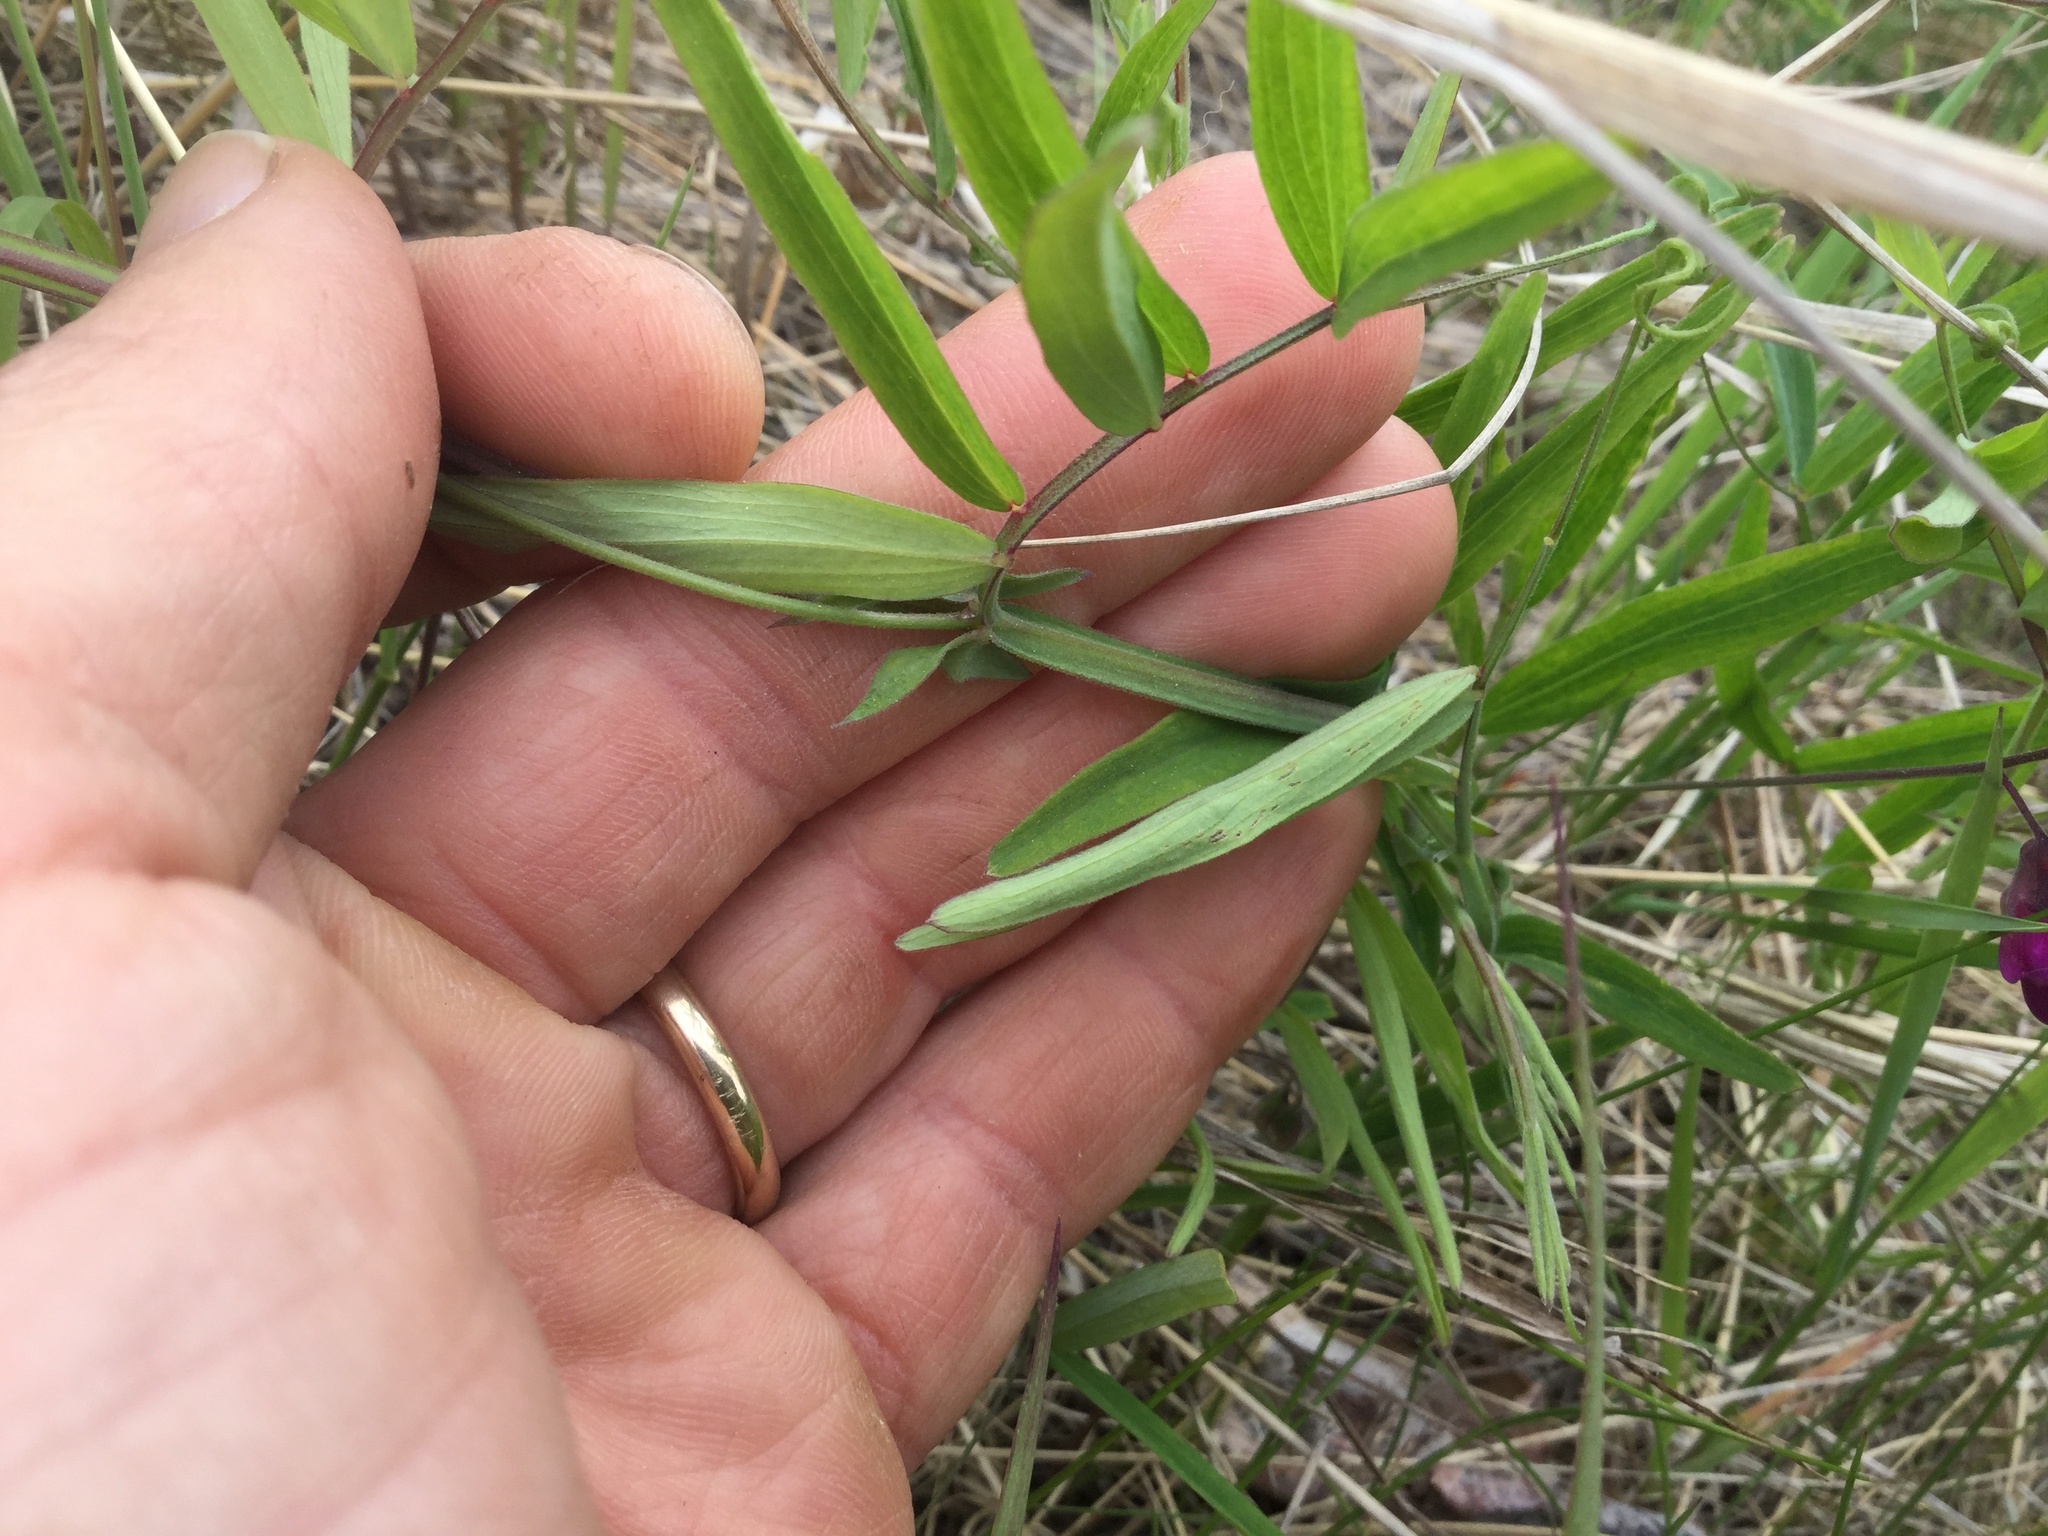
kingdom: Plantae
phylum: Tracheophyta
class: Magnoliopsida
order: Fabales
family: Fabaceae
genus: Lathyrus
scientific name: Lathyrus palustris
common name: Marsh pea
